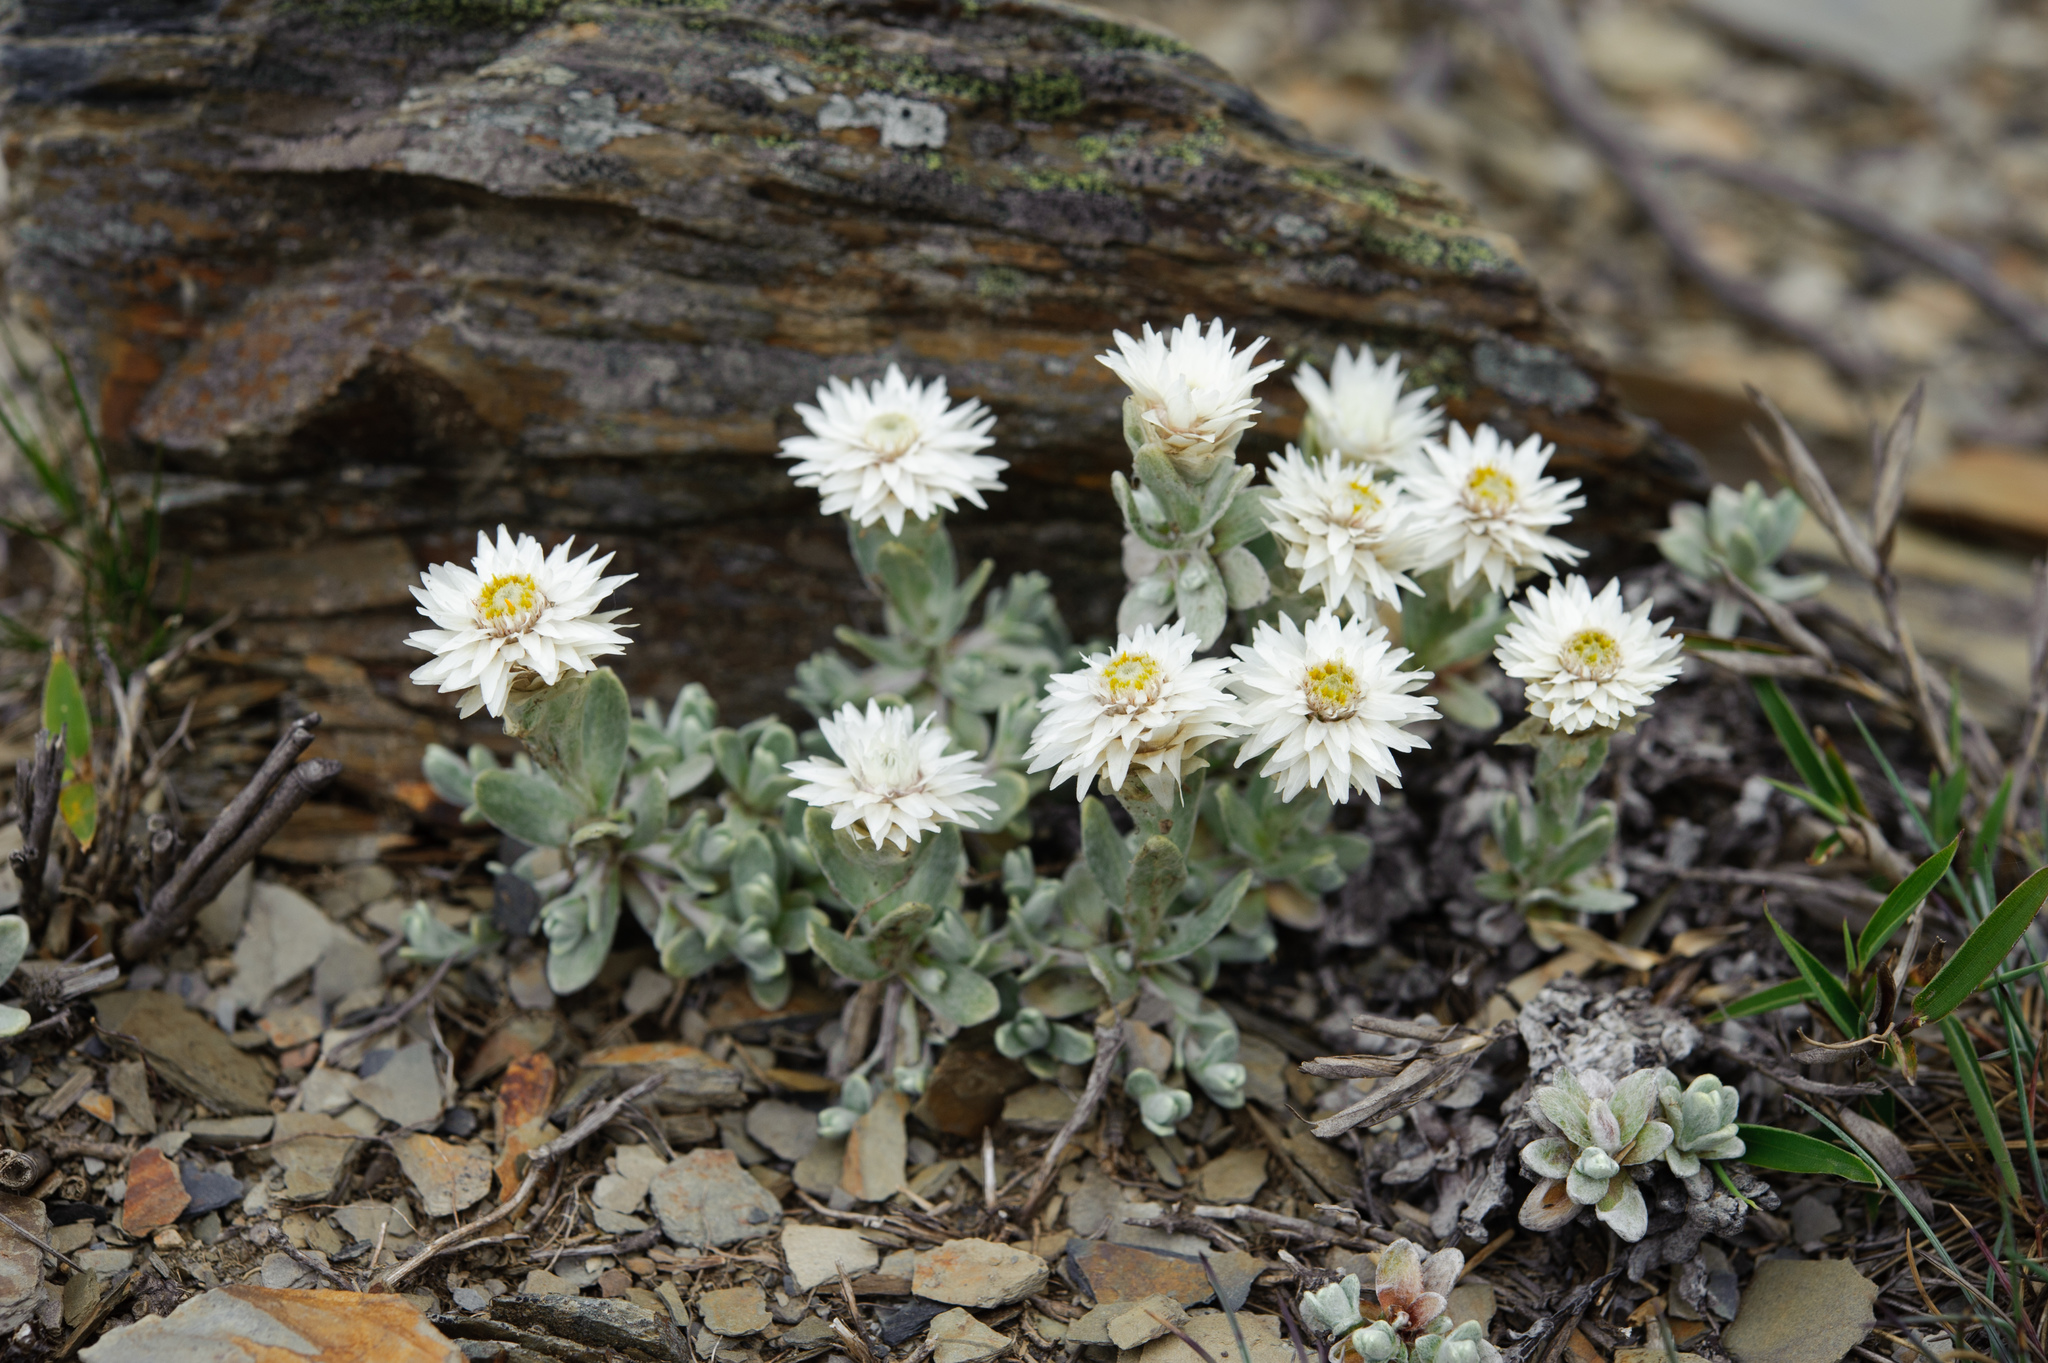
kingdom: Plantae
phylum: Tracheophyta
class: Magnoliopsida
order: Asterales
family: Asteraceae
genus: Anaphalis
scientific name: Anaphalis nepalensis
